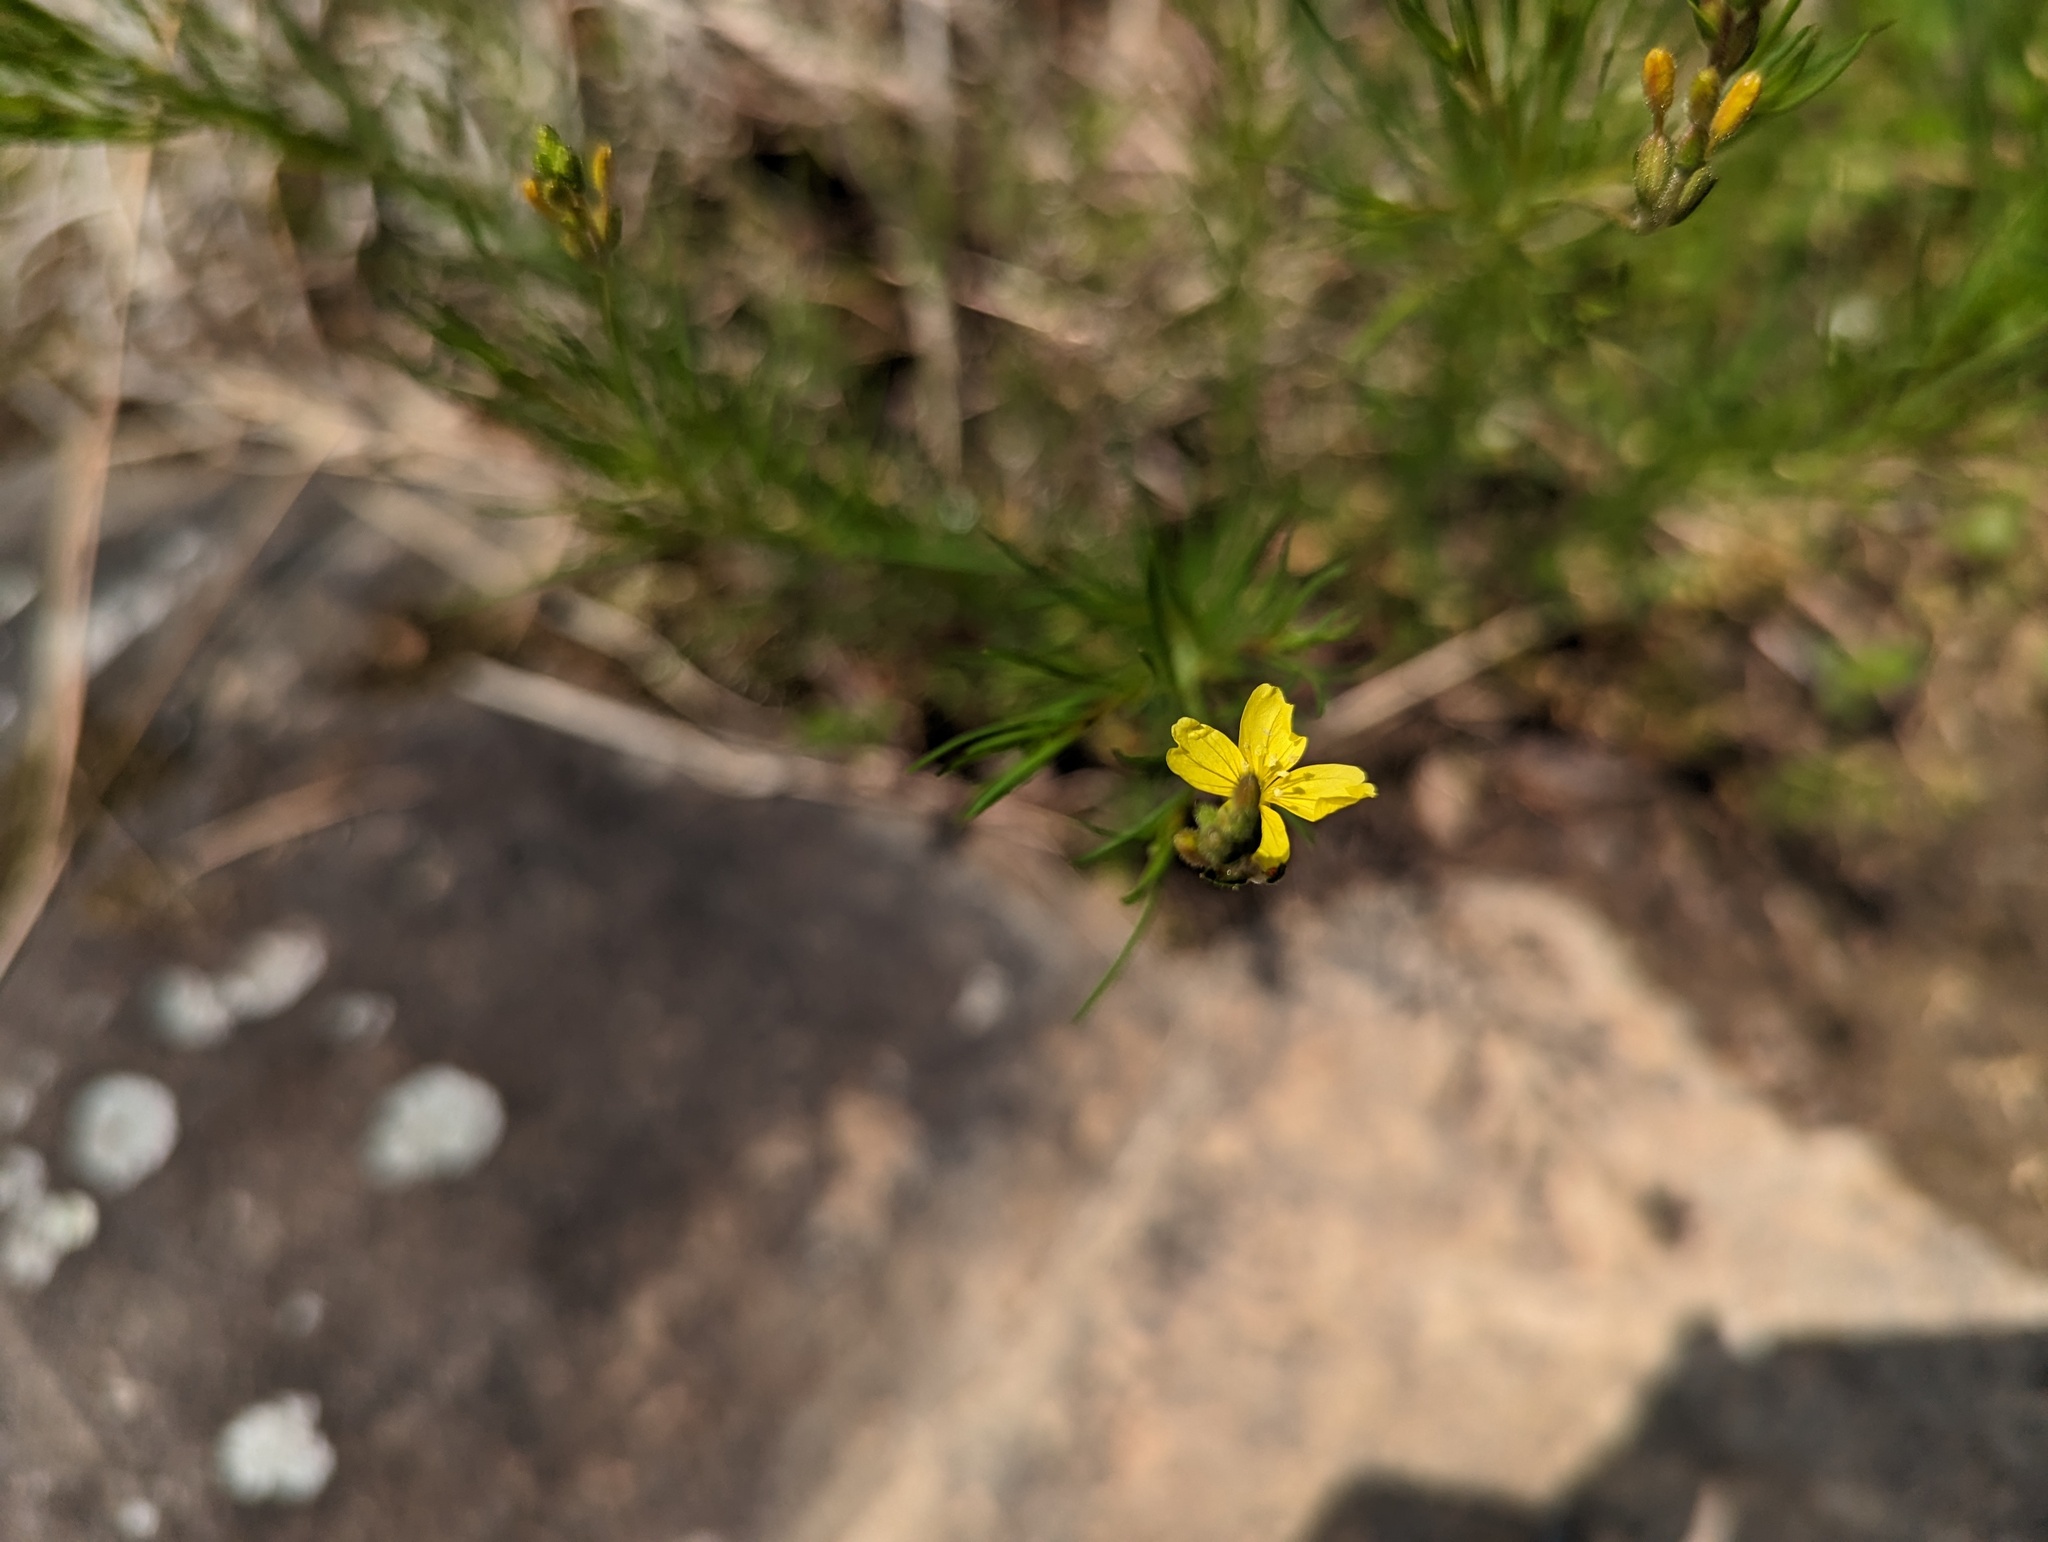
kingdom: Plantae
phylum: Tracheophyta
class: Magnoliopsida
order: Myrtales
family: Onagraceae
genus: Oenothera
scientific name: Oenothera linifolia
